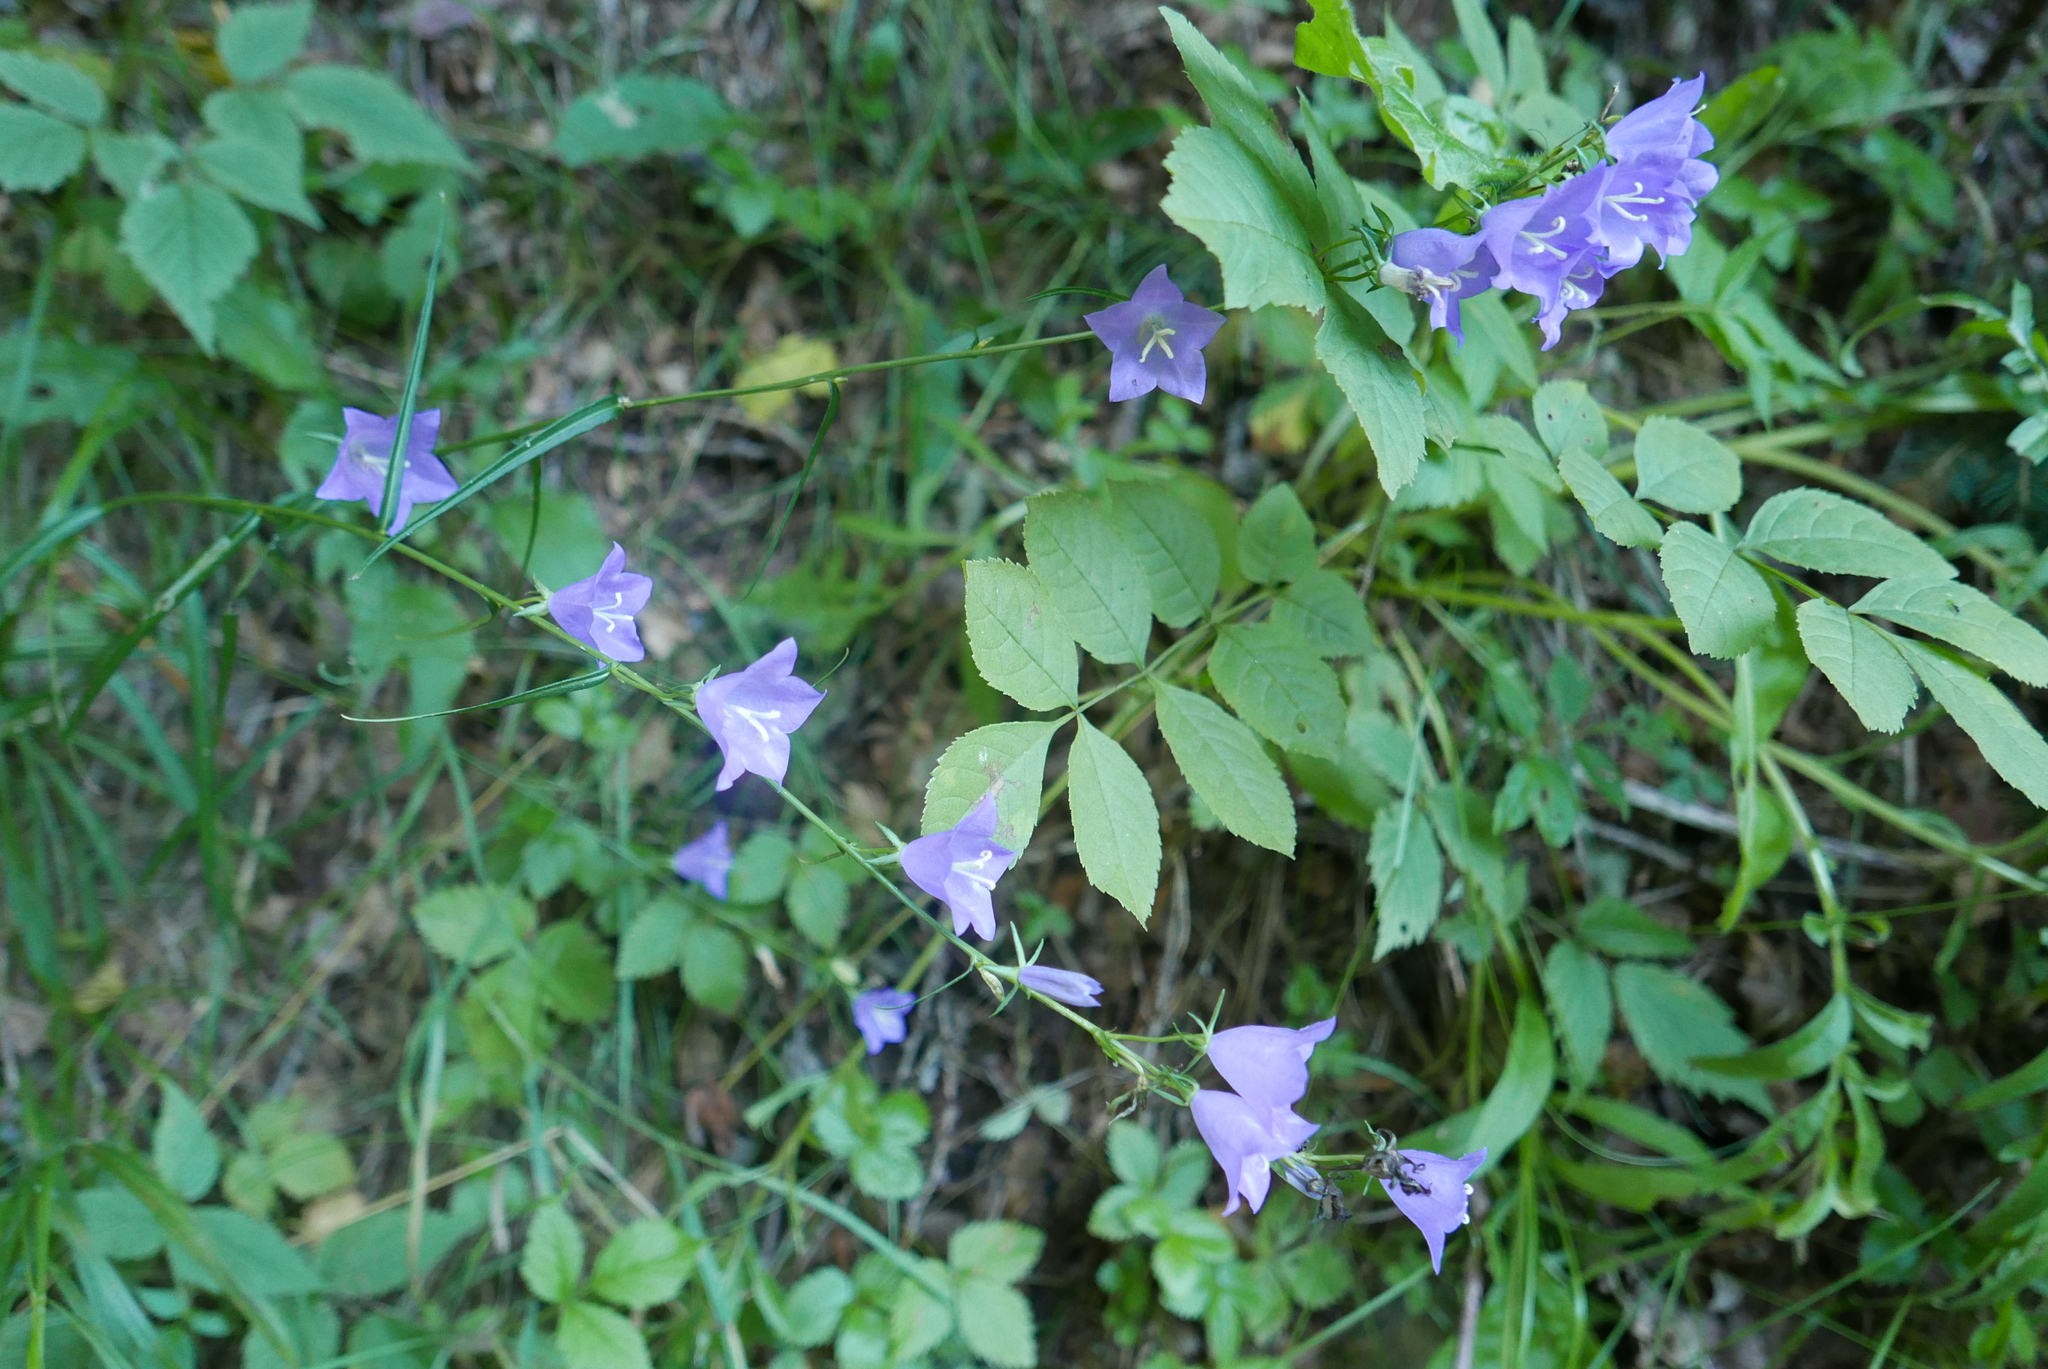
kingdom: Plantae
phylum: Tracheophyta
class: Magnoliopsida
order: Asterales
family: Campanulaceae
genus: Campanula
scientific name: Campanula persicifolia
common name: Peach-leaved bellflower
